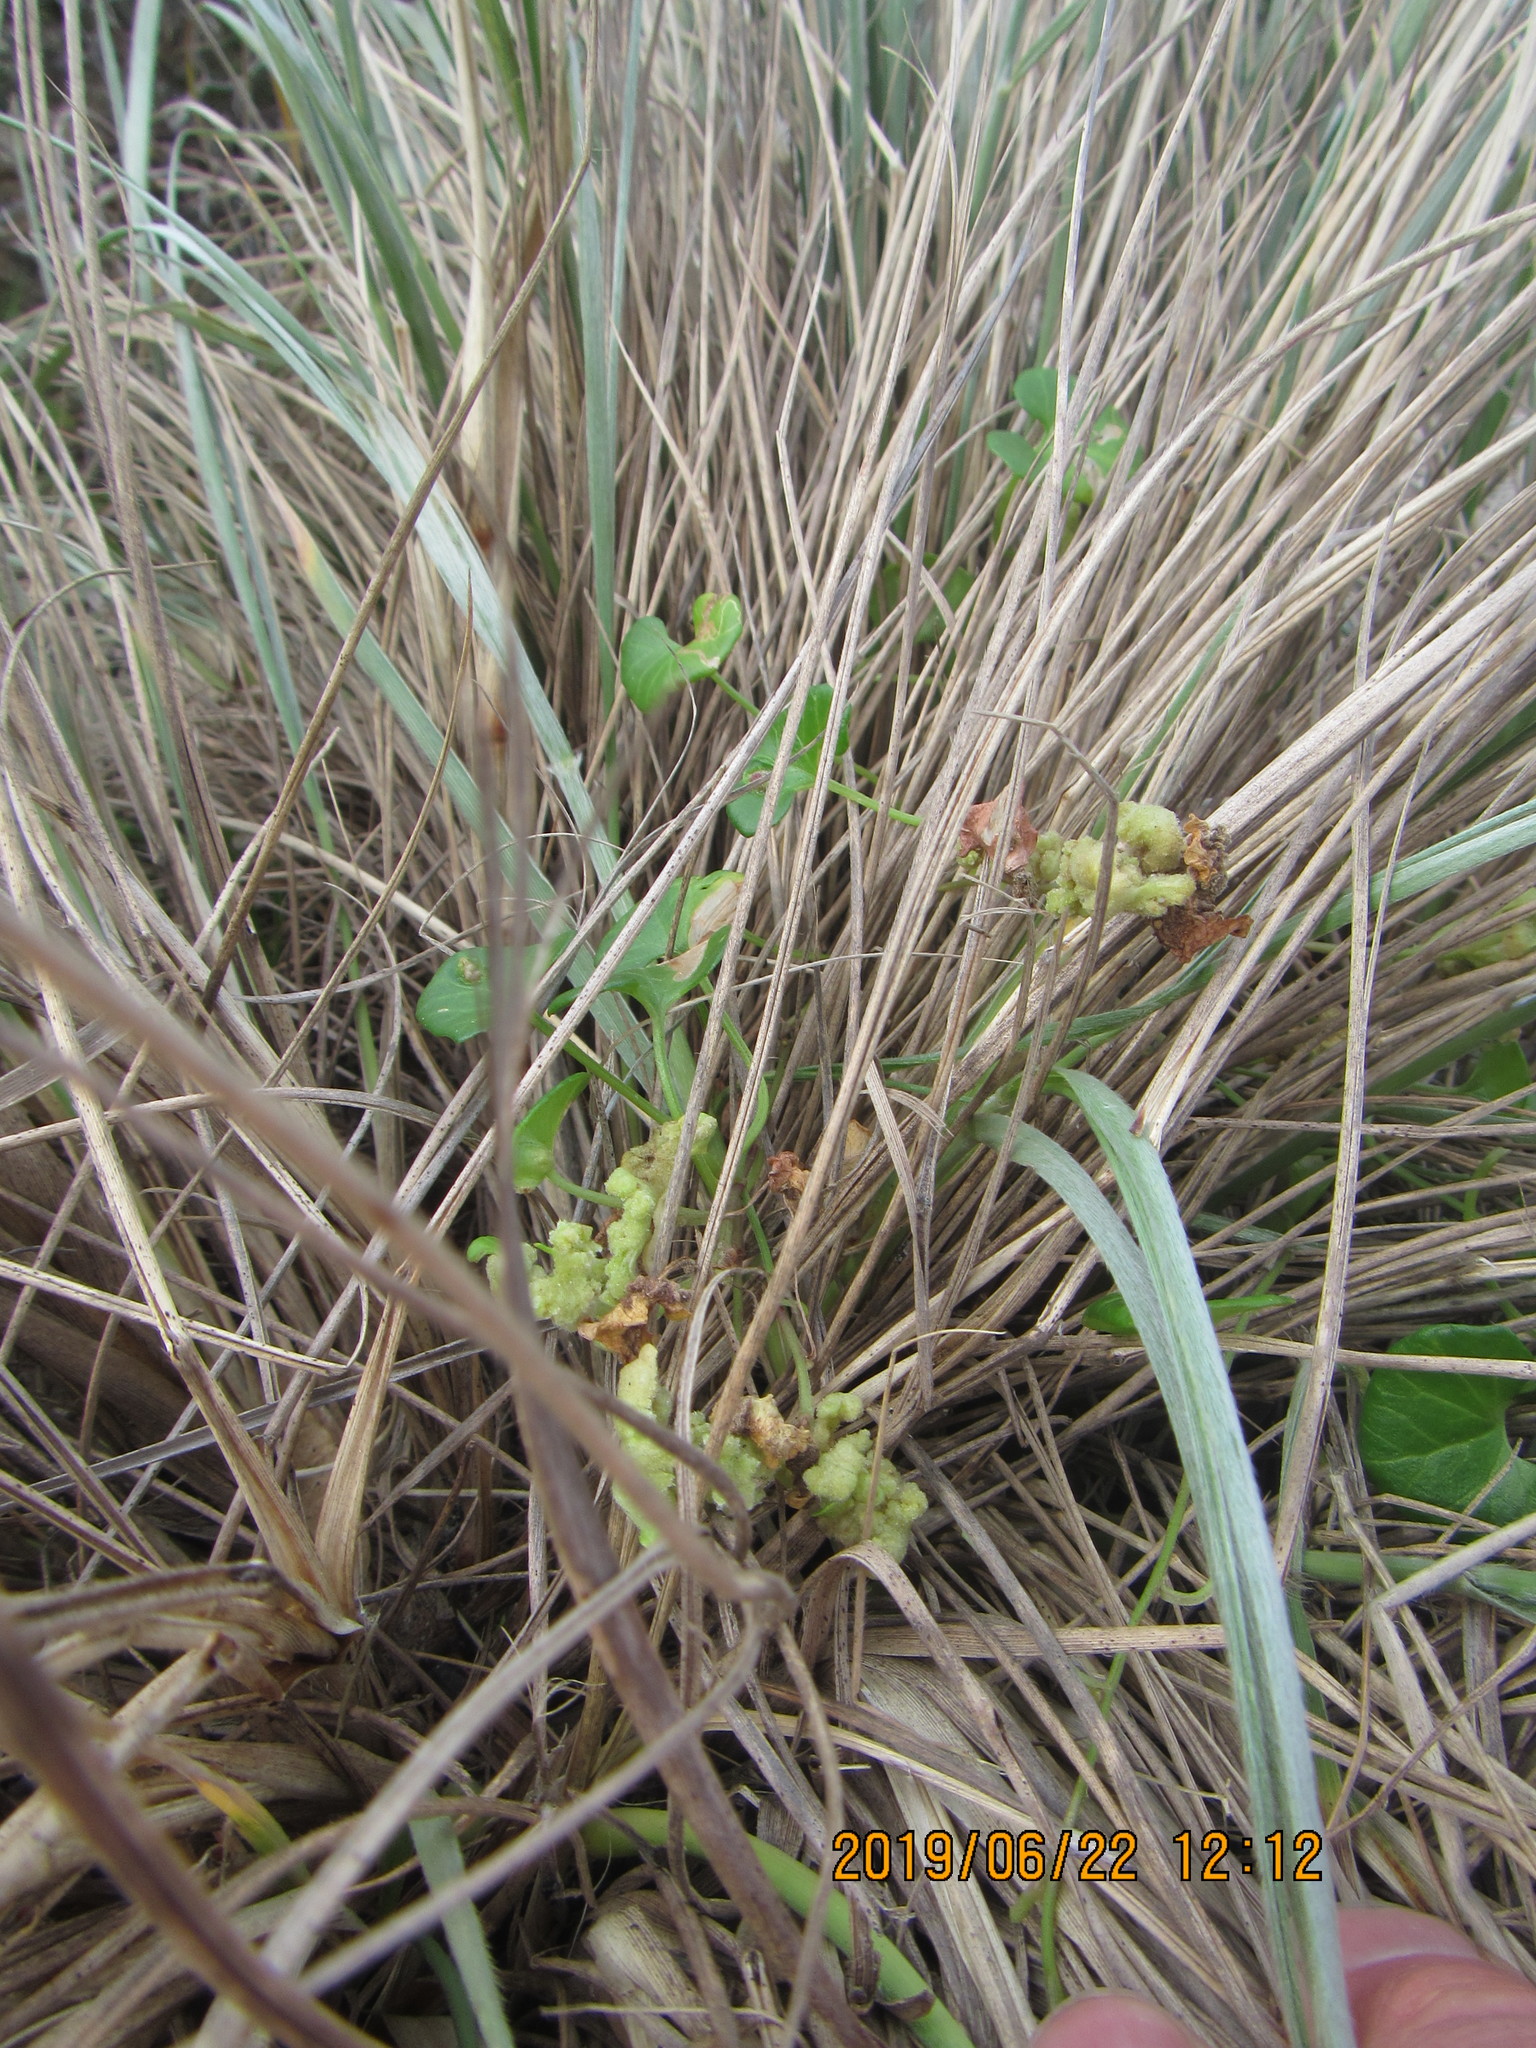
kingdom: Plantae
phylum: Tracheophyta
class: Magnoliopsida
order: Solanales
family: Convolvulaceae
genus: Calystegia
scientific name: Calystegia soldanella
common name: Sea bindweed
